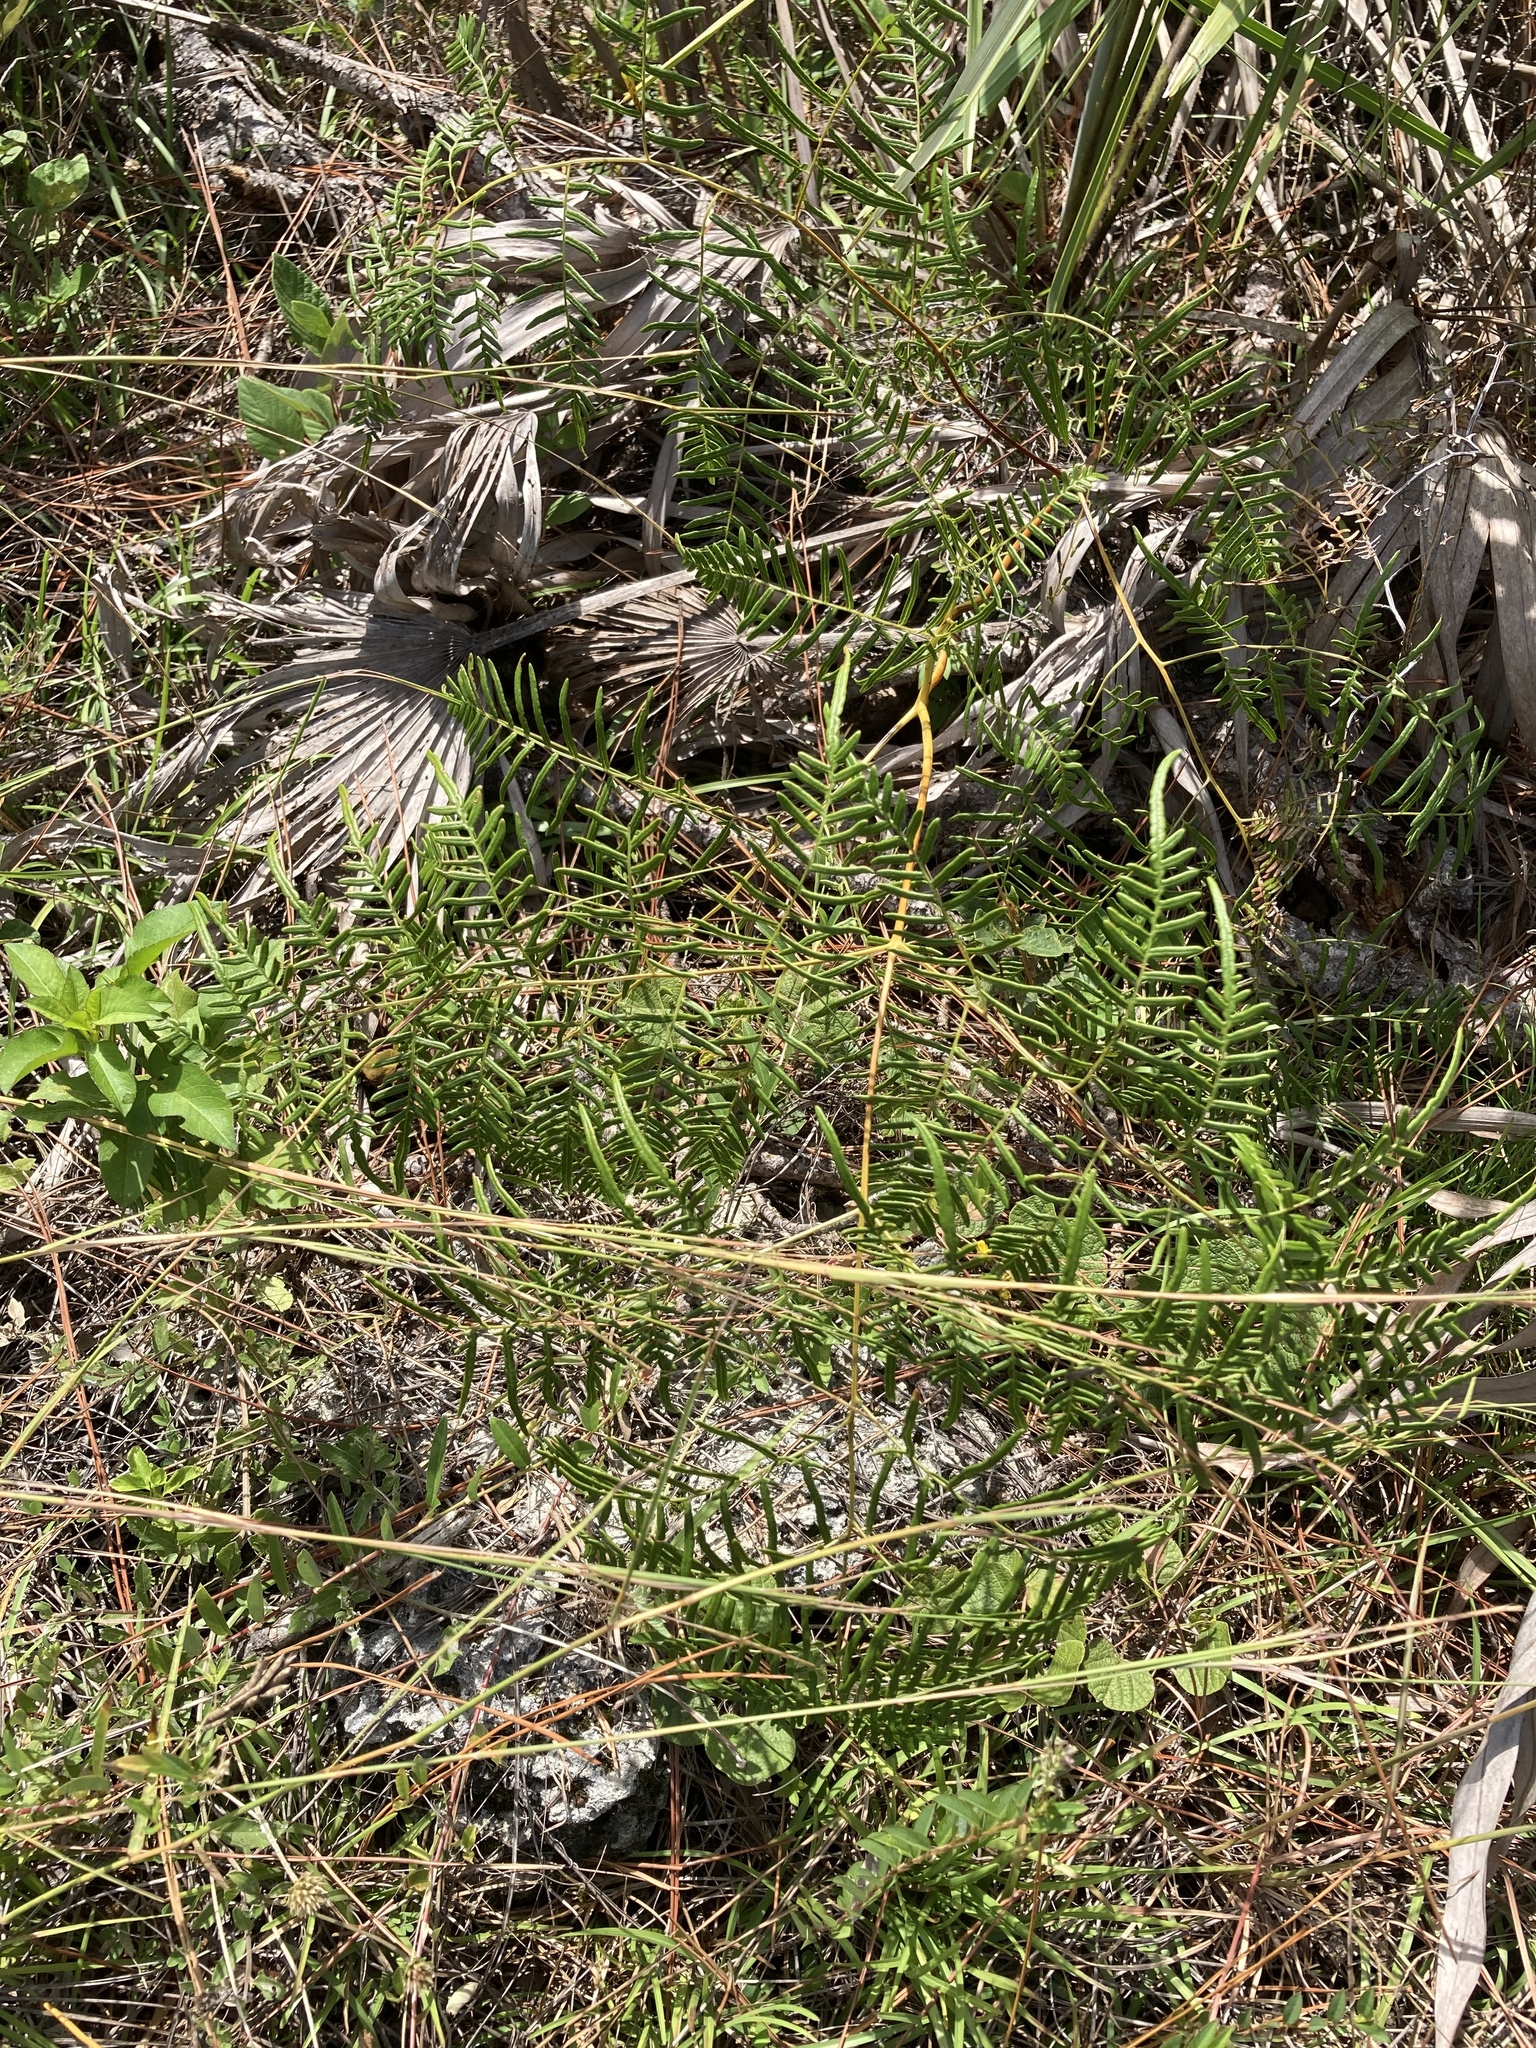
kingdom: Plantae
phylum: Tracheophyta
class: Polypodiopsida
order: Polypodiales
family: Dennstaedtiaceae
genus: Pteridium
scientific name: Pteridium caudatum
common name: Southern bracken fern
